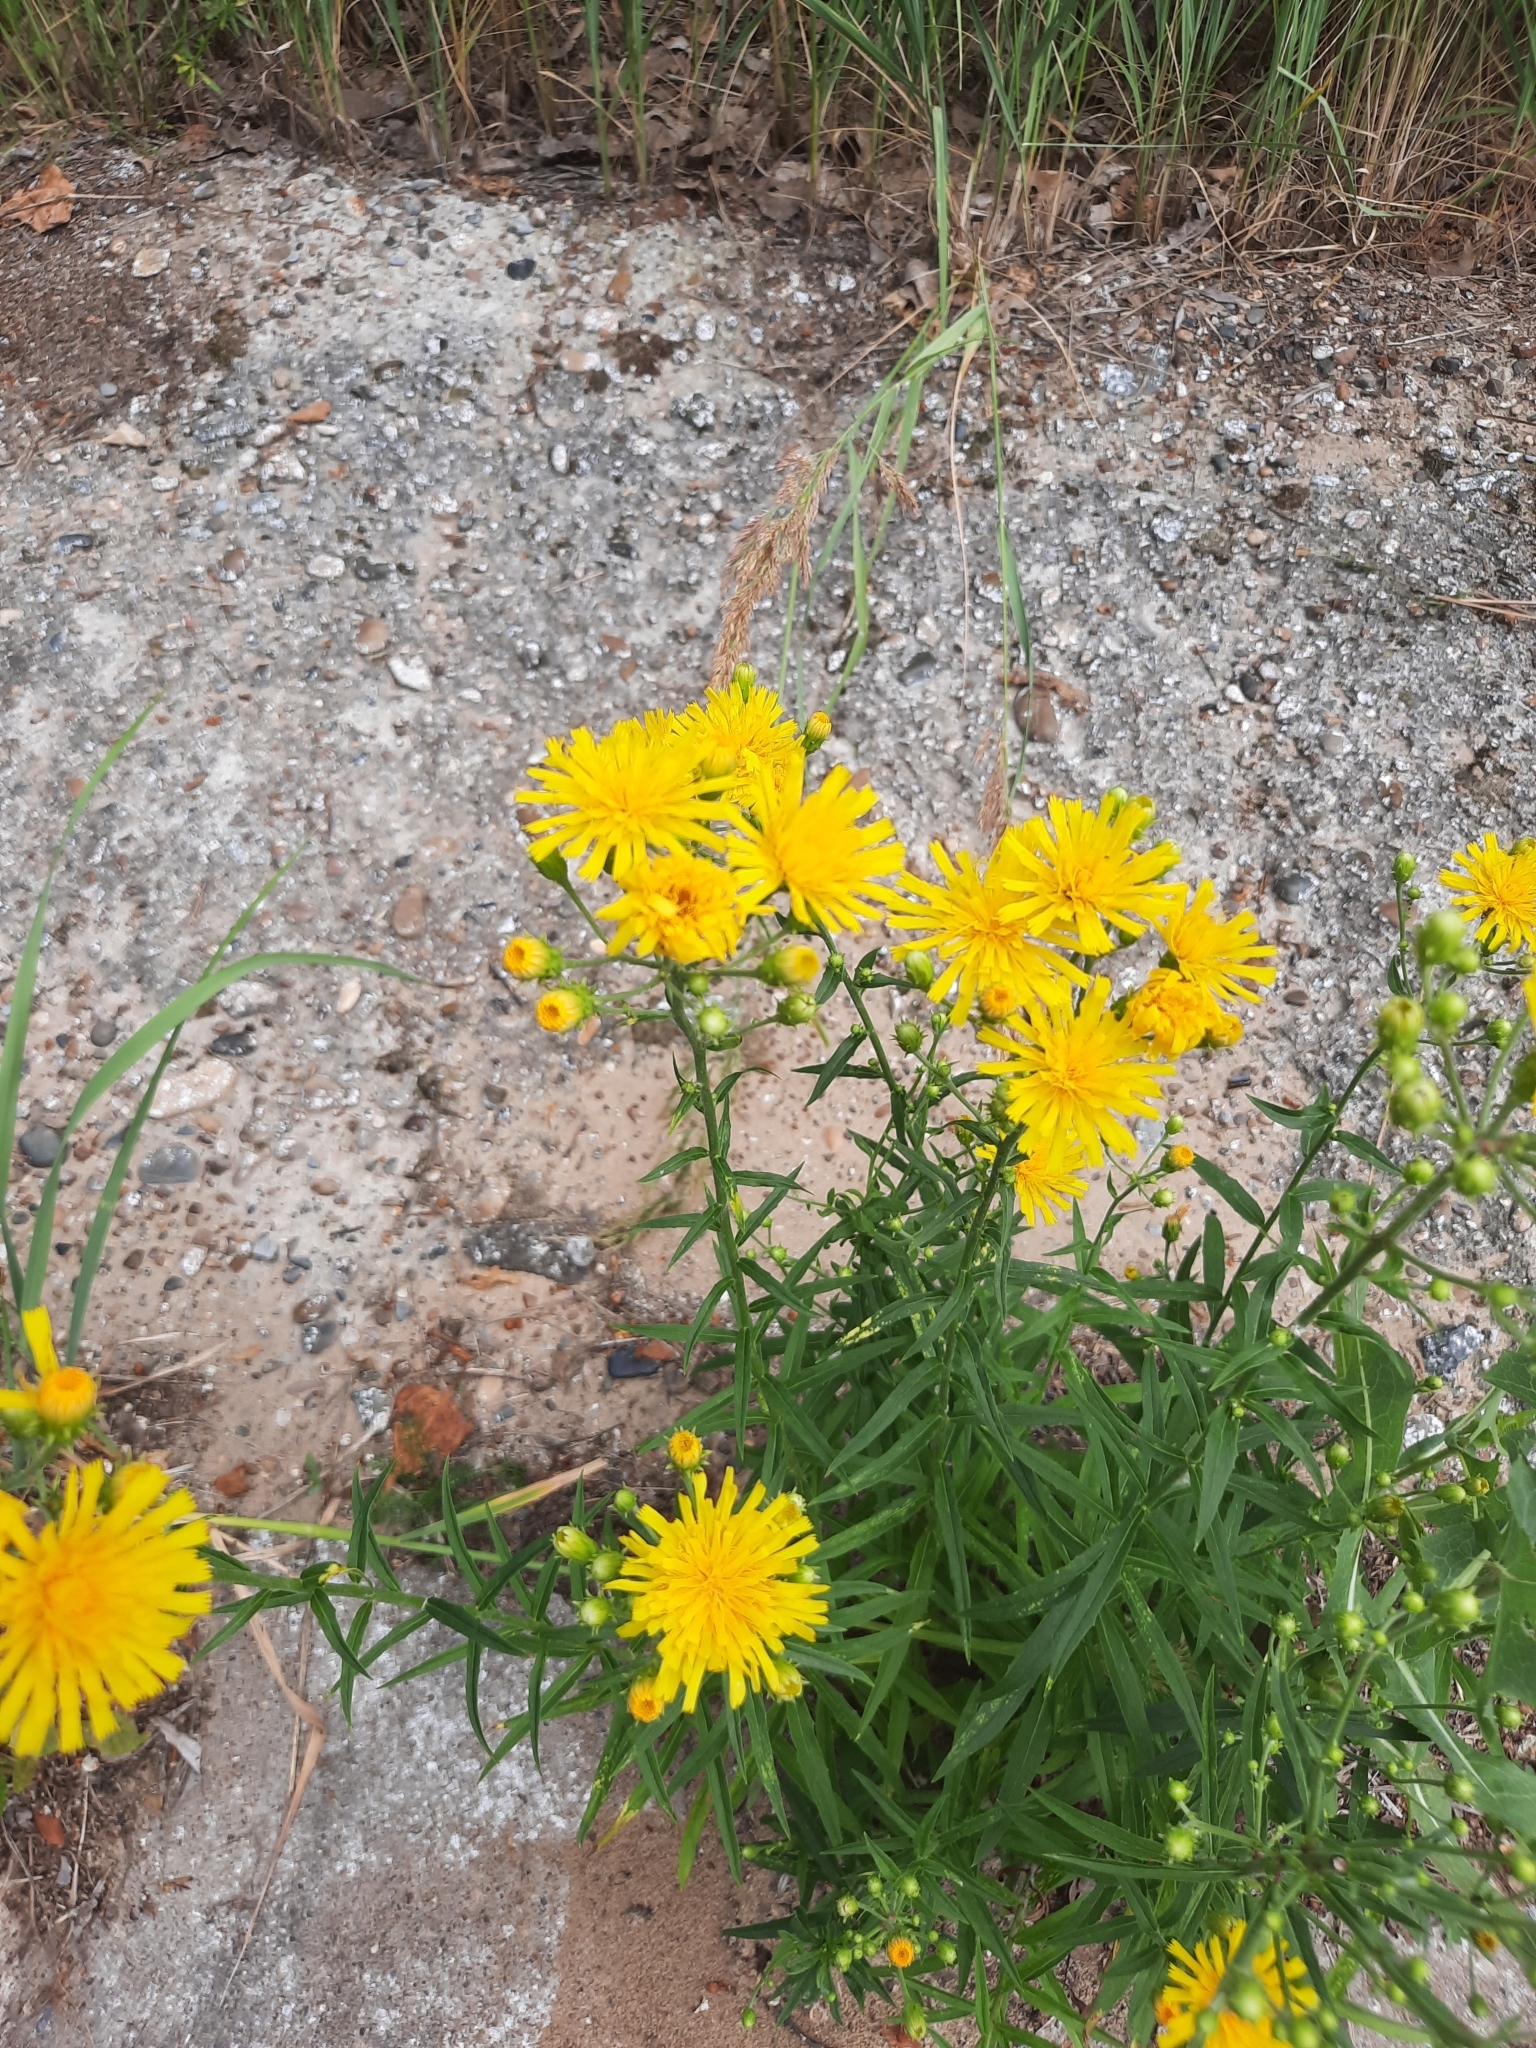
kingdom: Plantae
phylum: Tracheophyta
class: Magnoliopsida
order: Asterales
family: Asteraceae
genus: Hieracium
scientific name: Hieracium umbellatum
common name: Northern hawkweed
